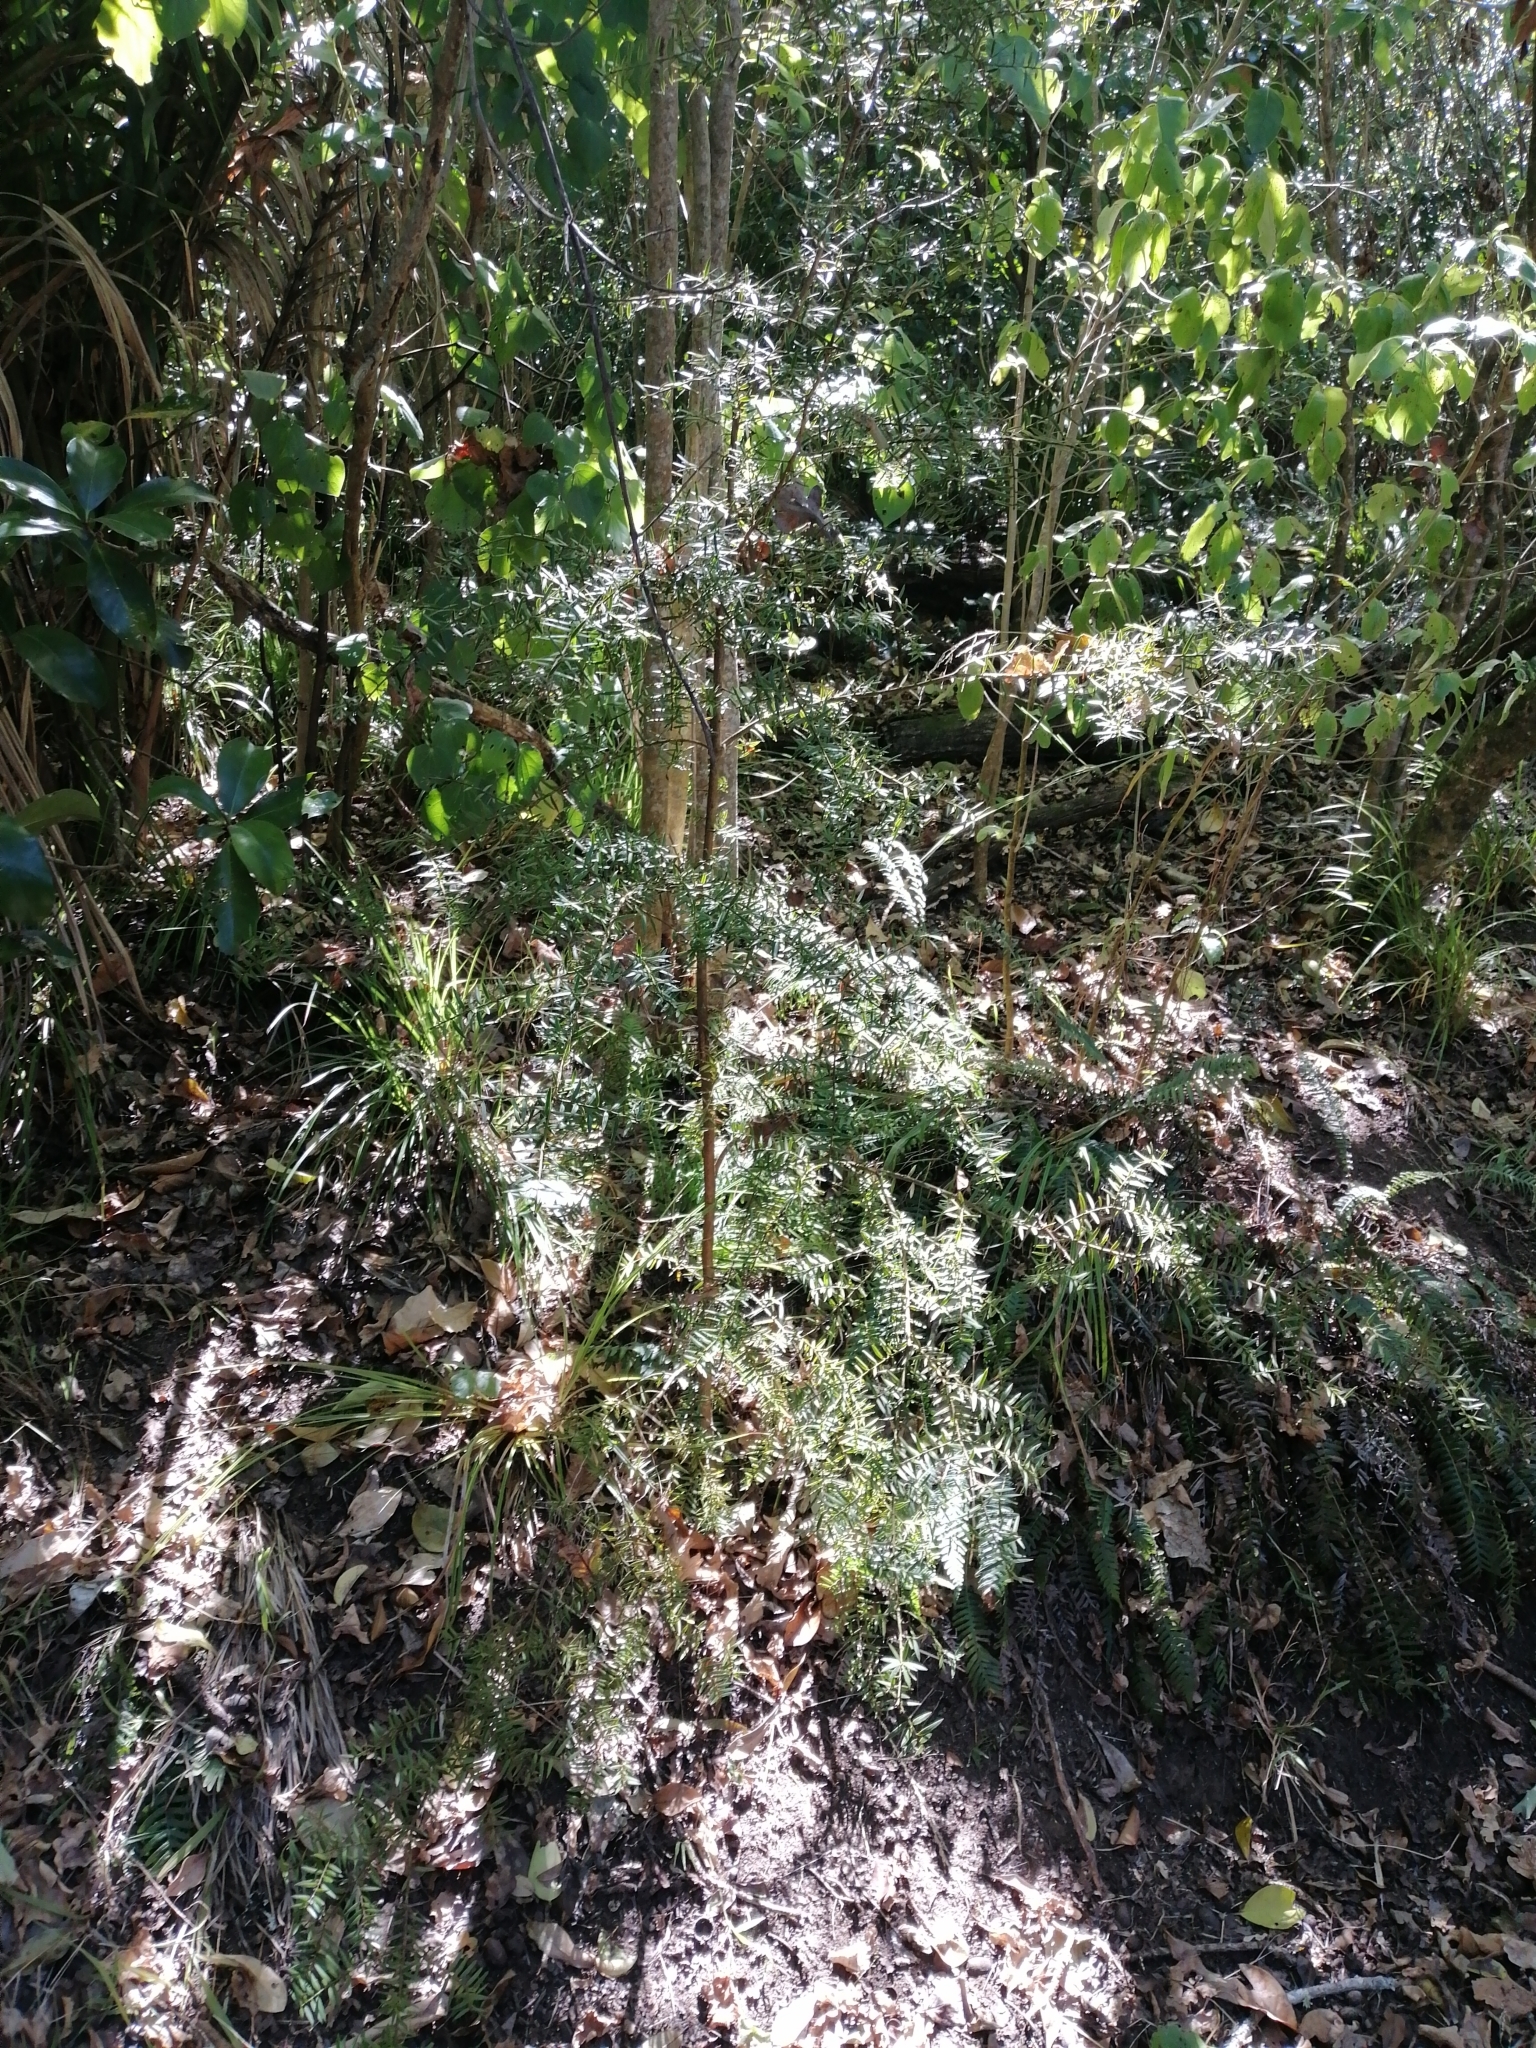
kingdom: Plantae
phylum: Tracheophyta
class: Pinopsida
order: Pinales
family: Podocarpaceae
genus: Podocarpus
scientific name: Podocarpus totara
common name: Totara
